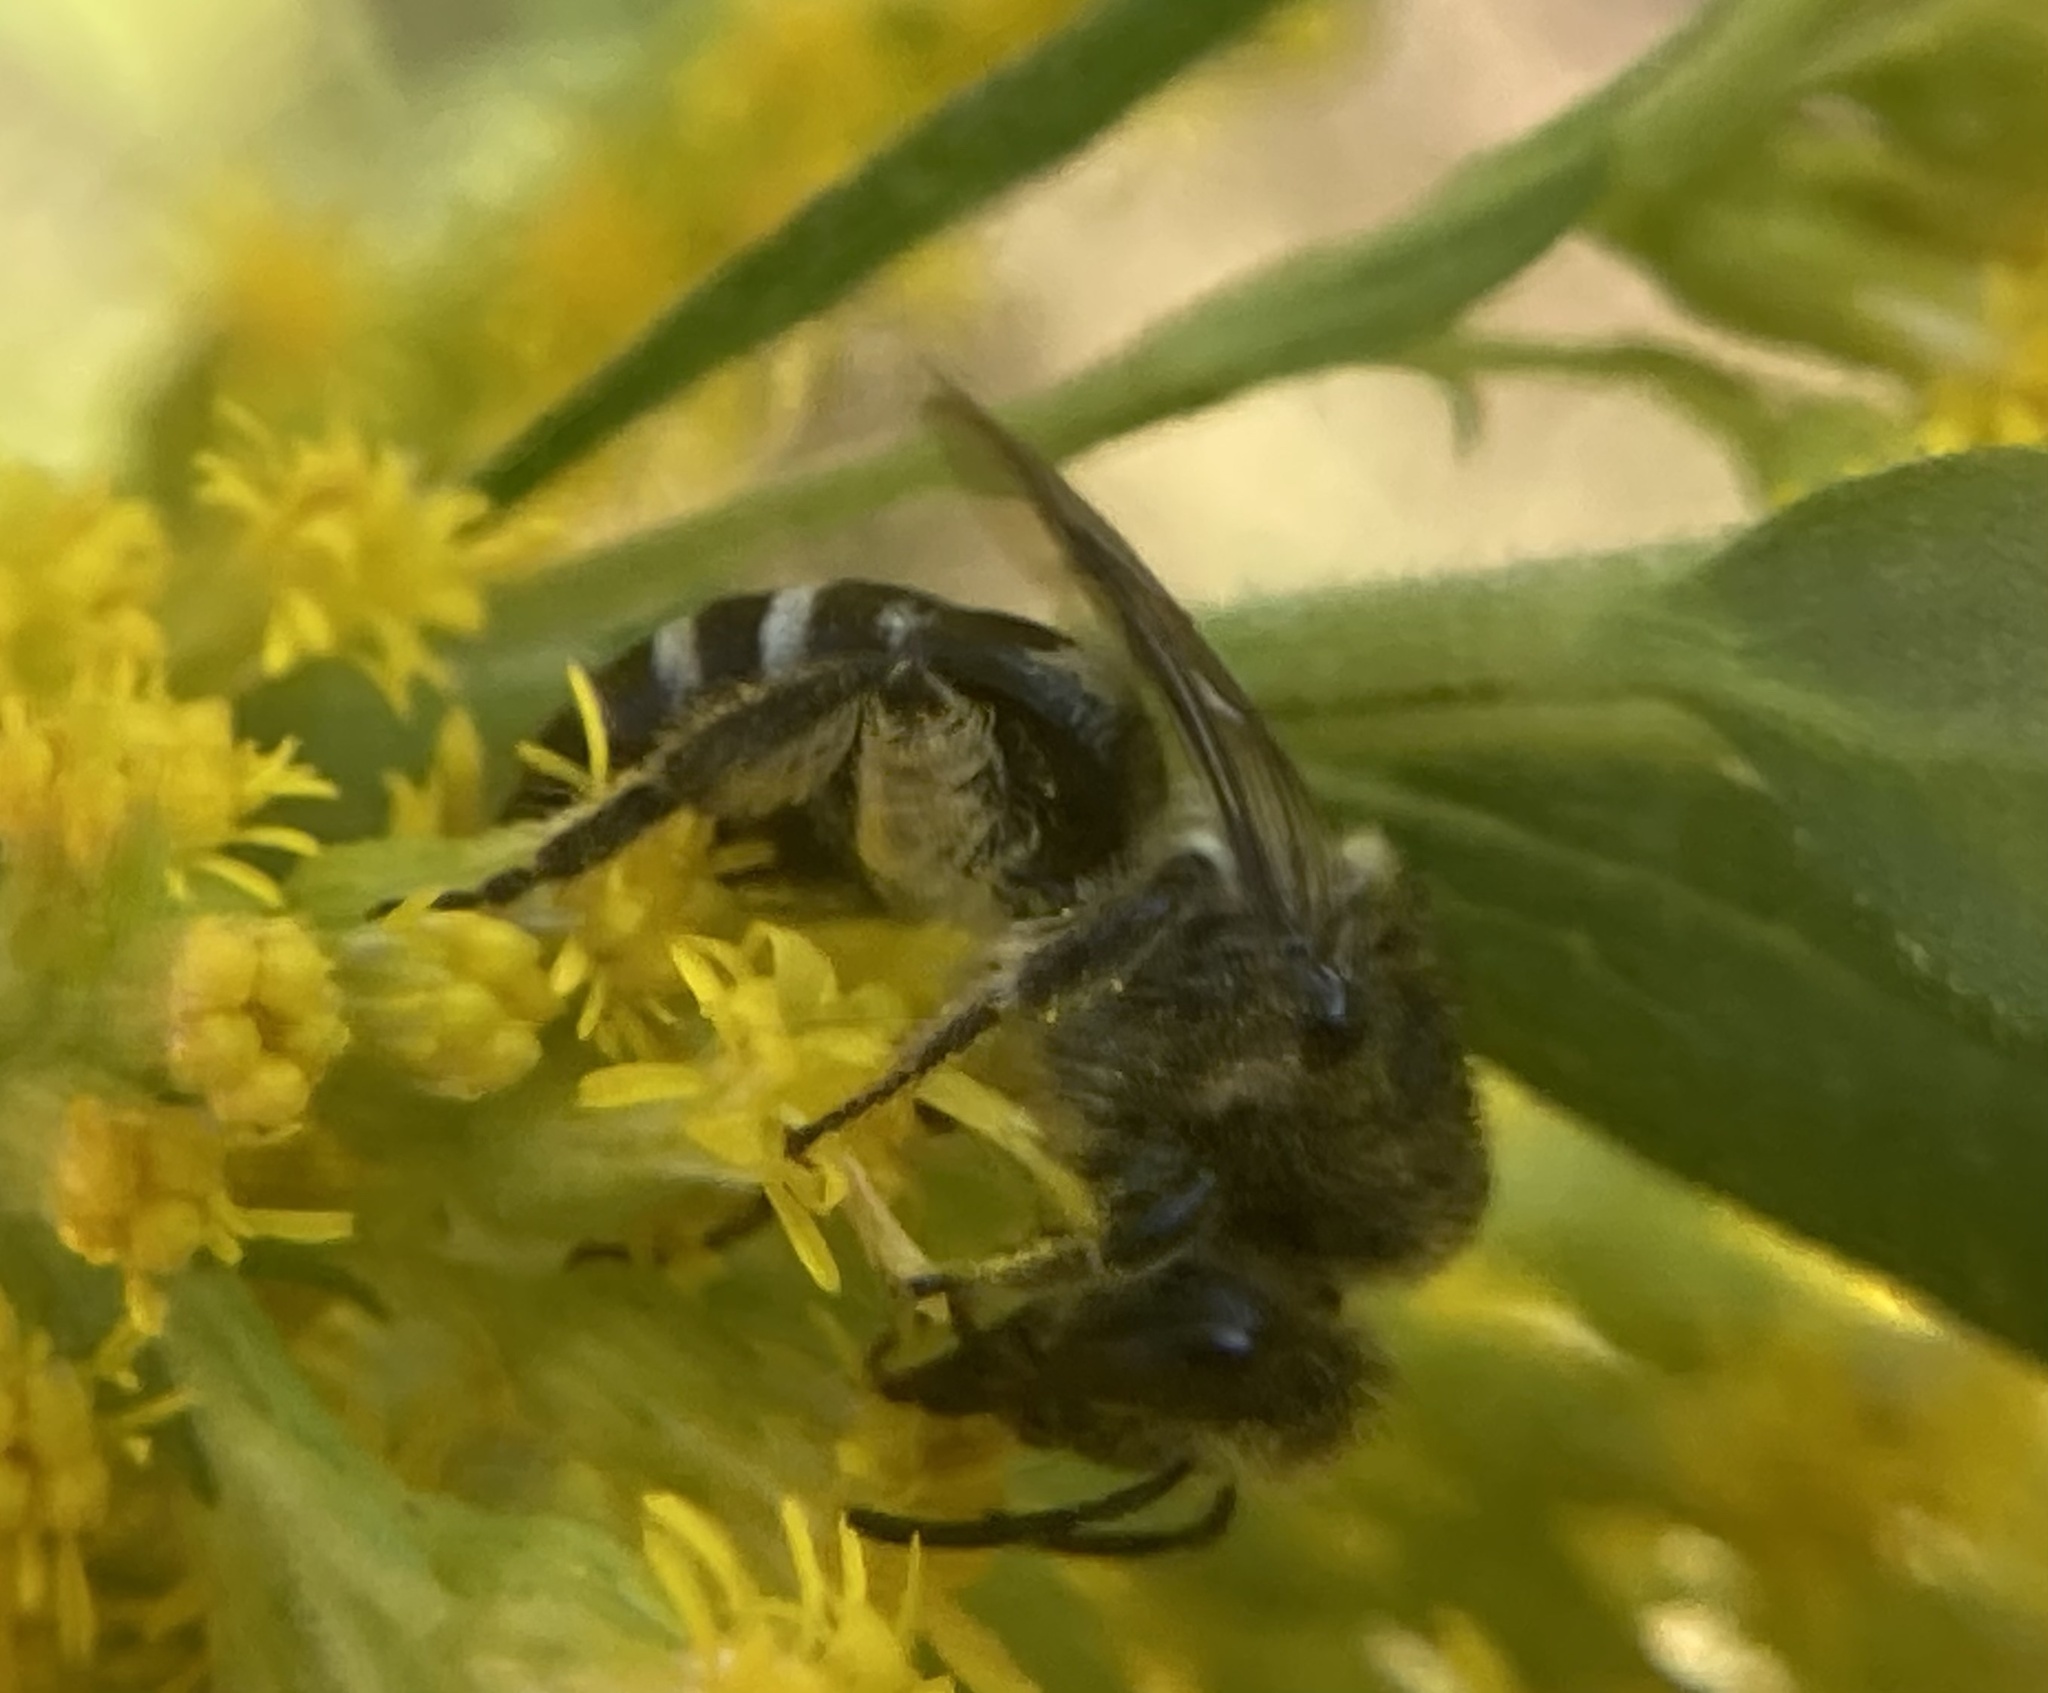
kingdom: Animalia
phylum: Arthropoda
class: Insecta
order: Hymenoptera
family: Colletidae
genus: Colletes
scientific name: Colletes simulans
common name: Spine-shouldered cellophane bee
